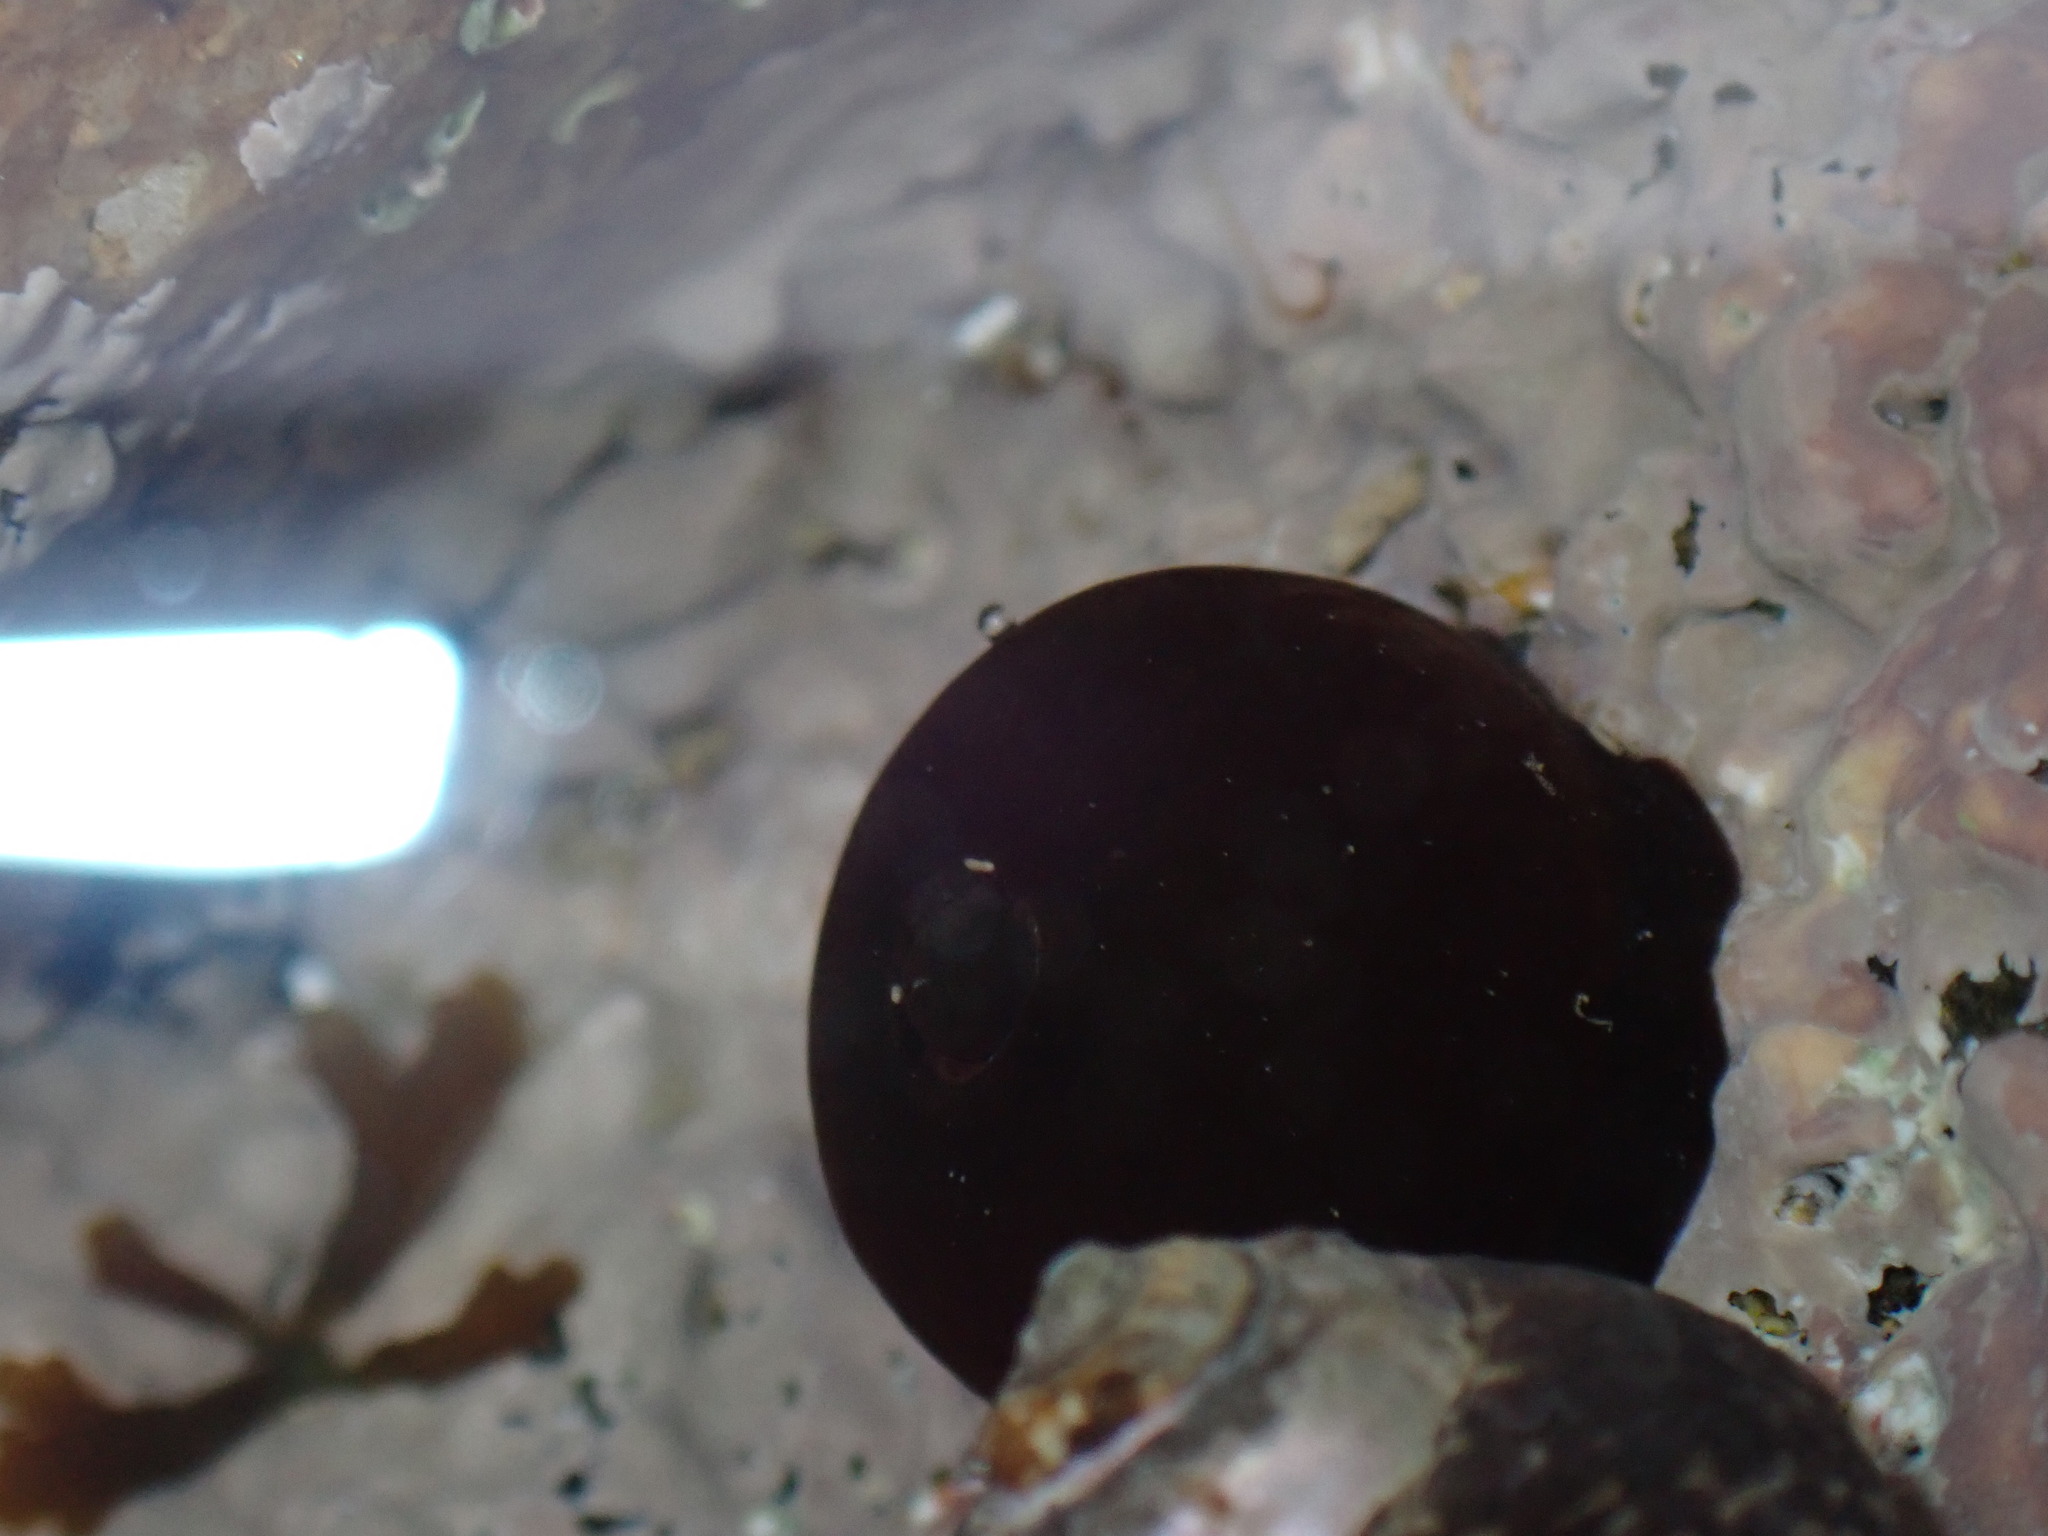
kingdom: Animalia
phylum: Cnidaria
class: Anthozoa
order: Actiniaria
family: Actiniidae
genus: Actinia
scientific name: Actinia equina
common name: Beadlet anemone
